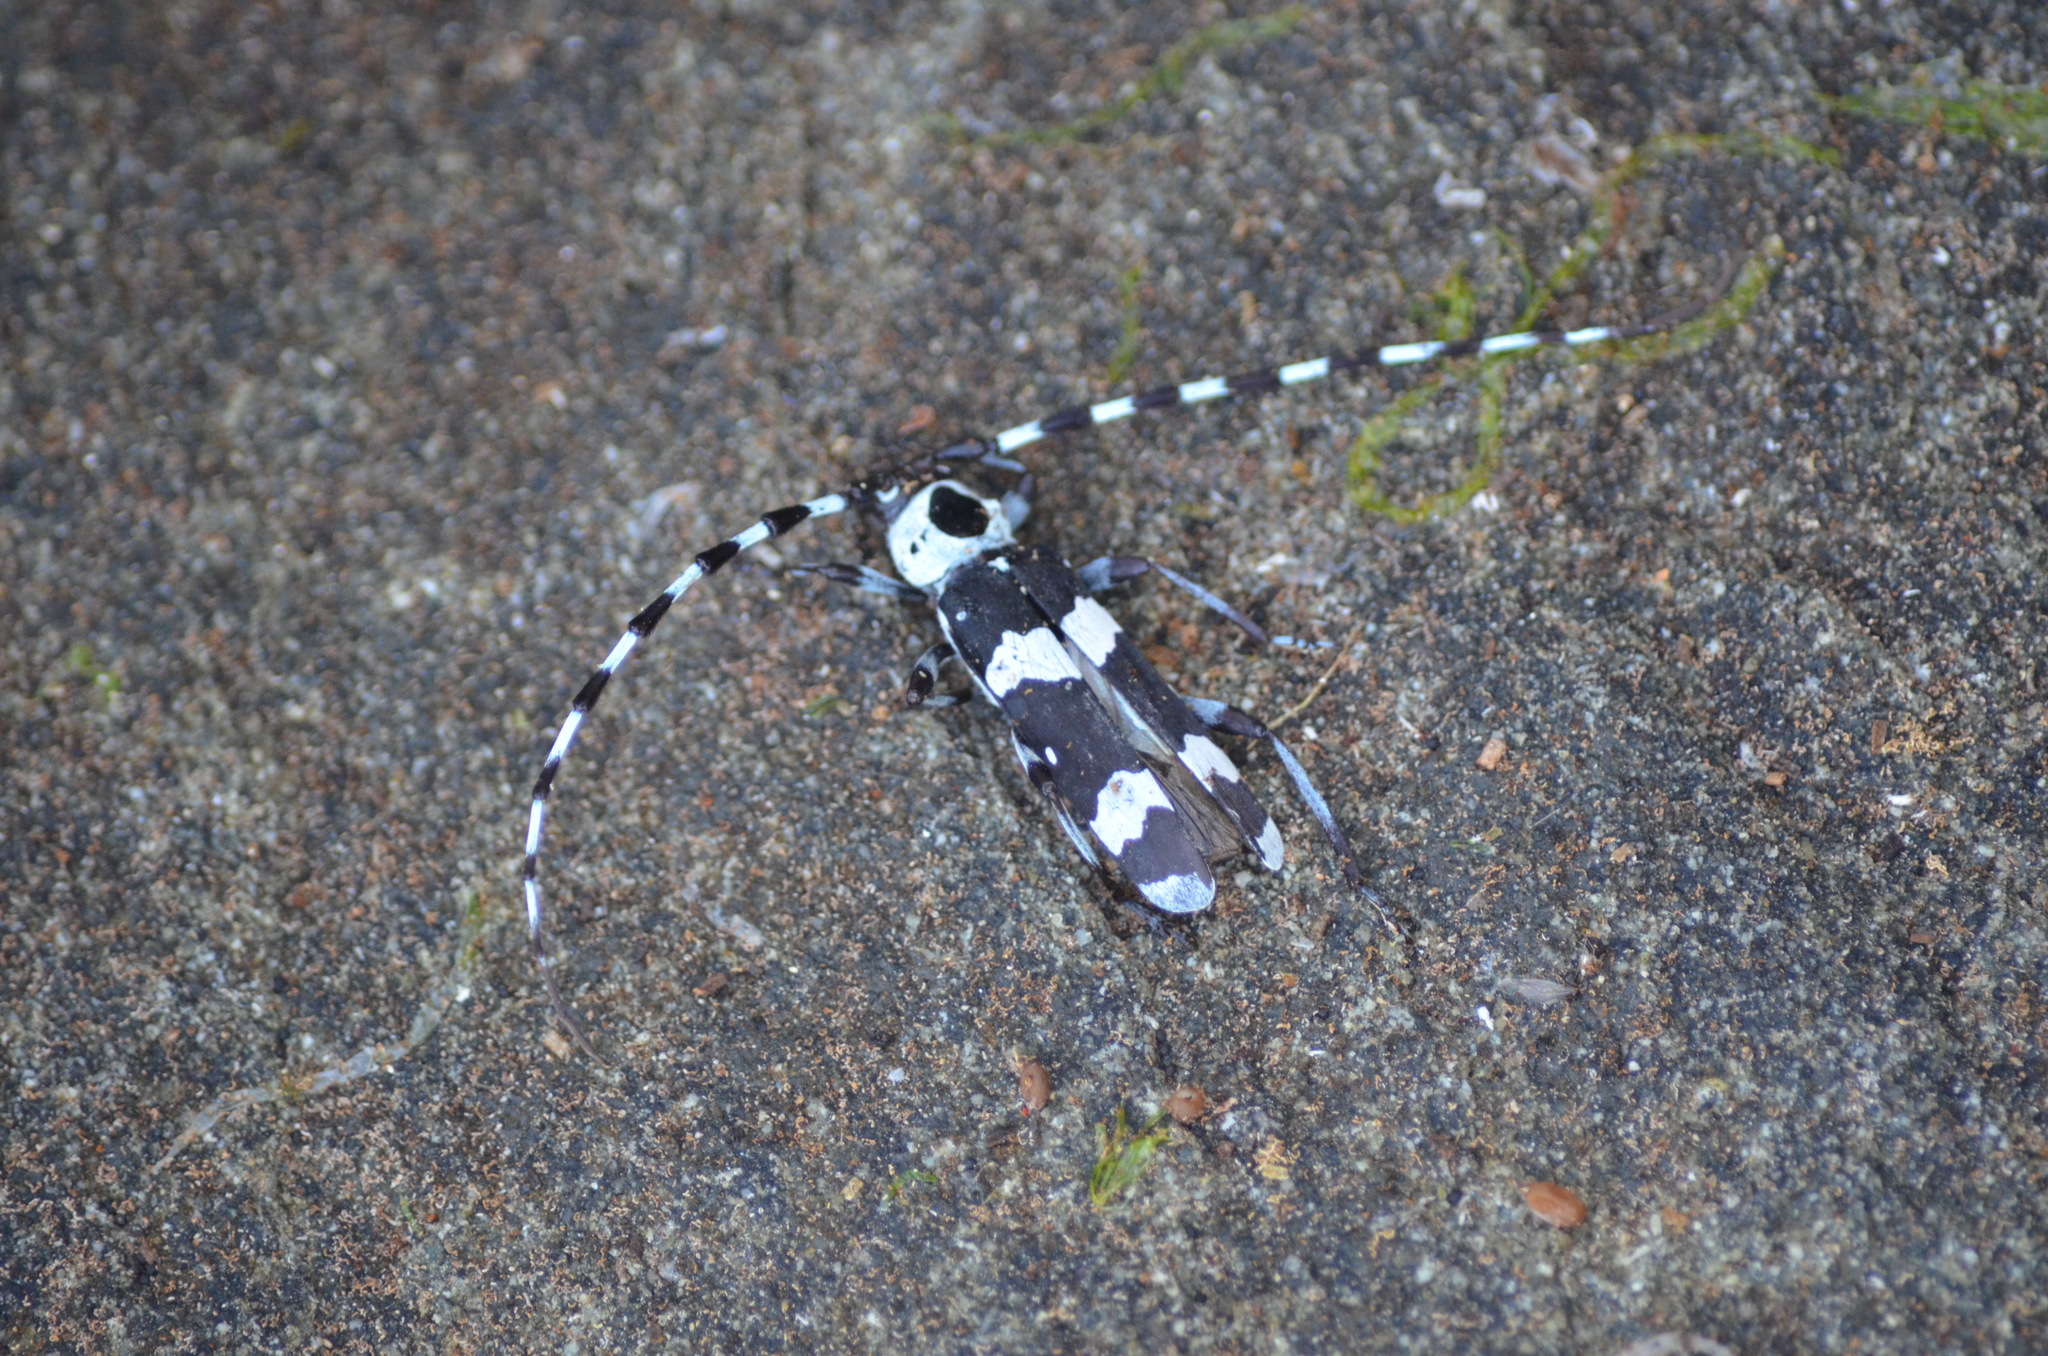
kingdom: Animalia
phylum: Arthropoda
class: Insecta
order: Coleoptera
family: Cerambycidae
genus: Rosalia
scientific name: Rosalia funebris
